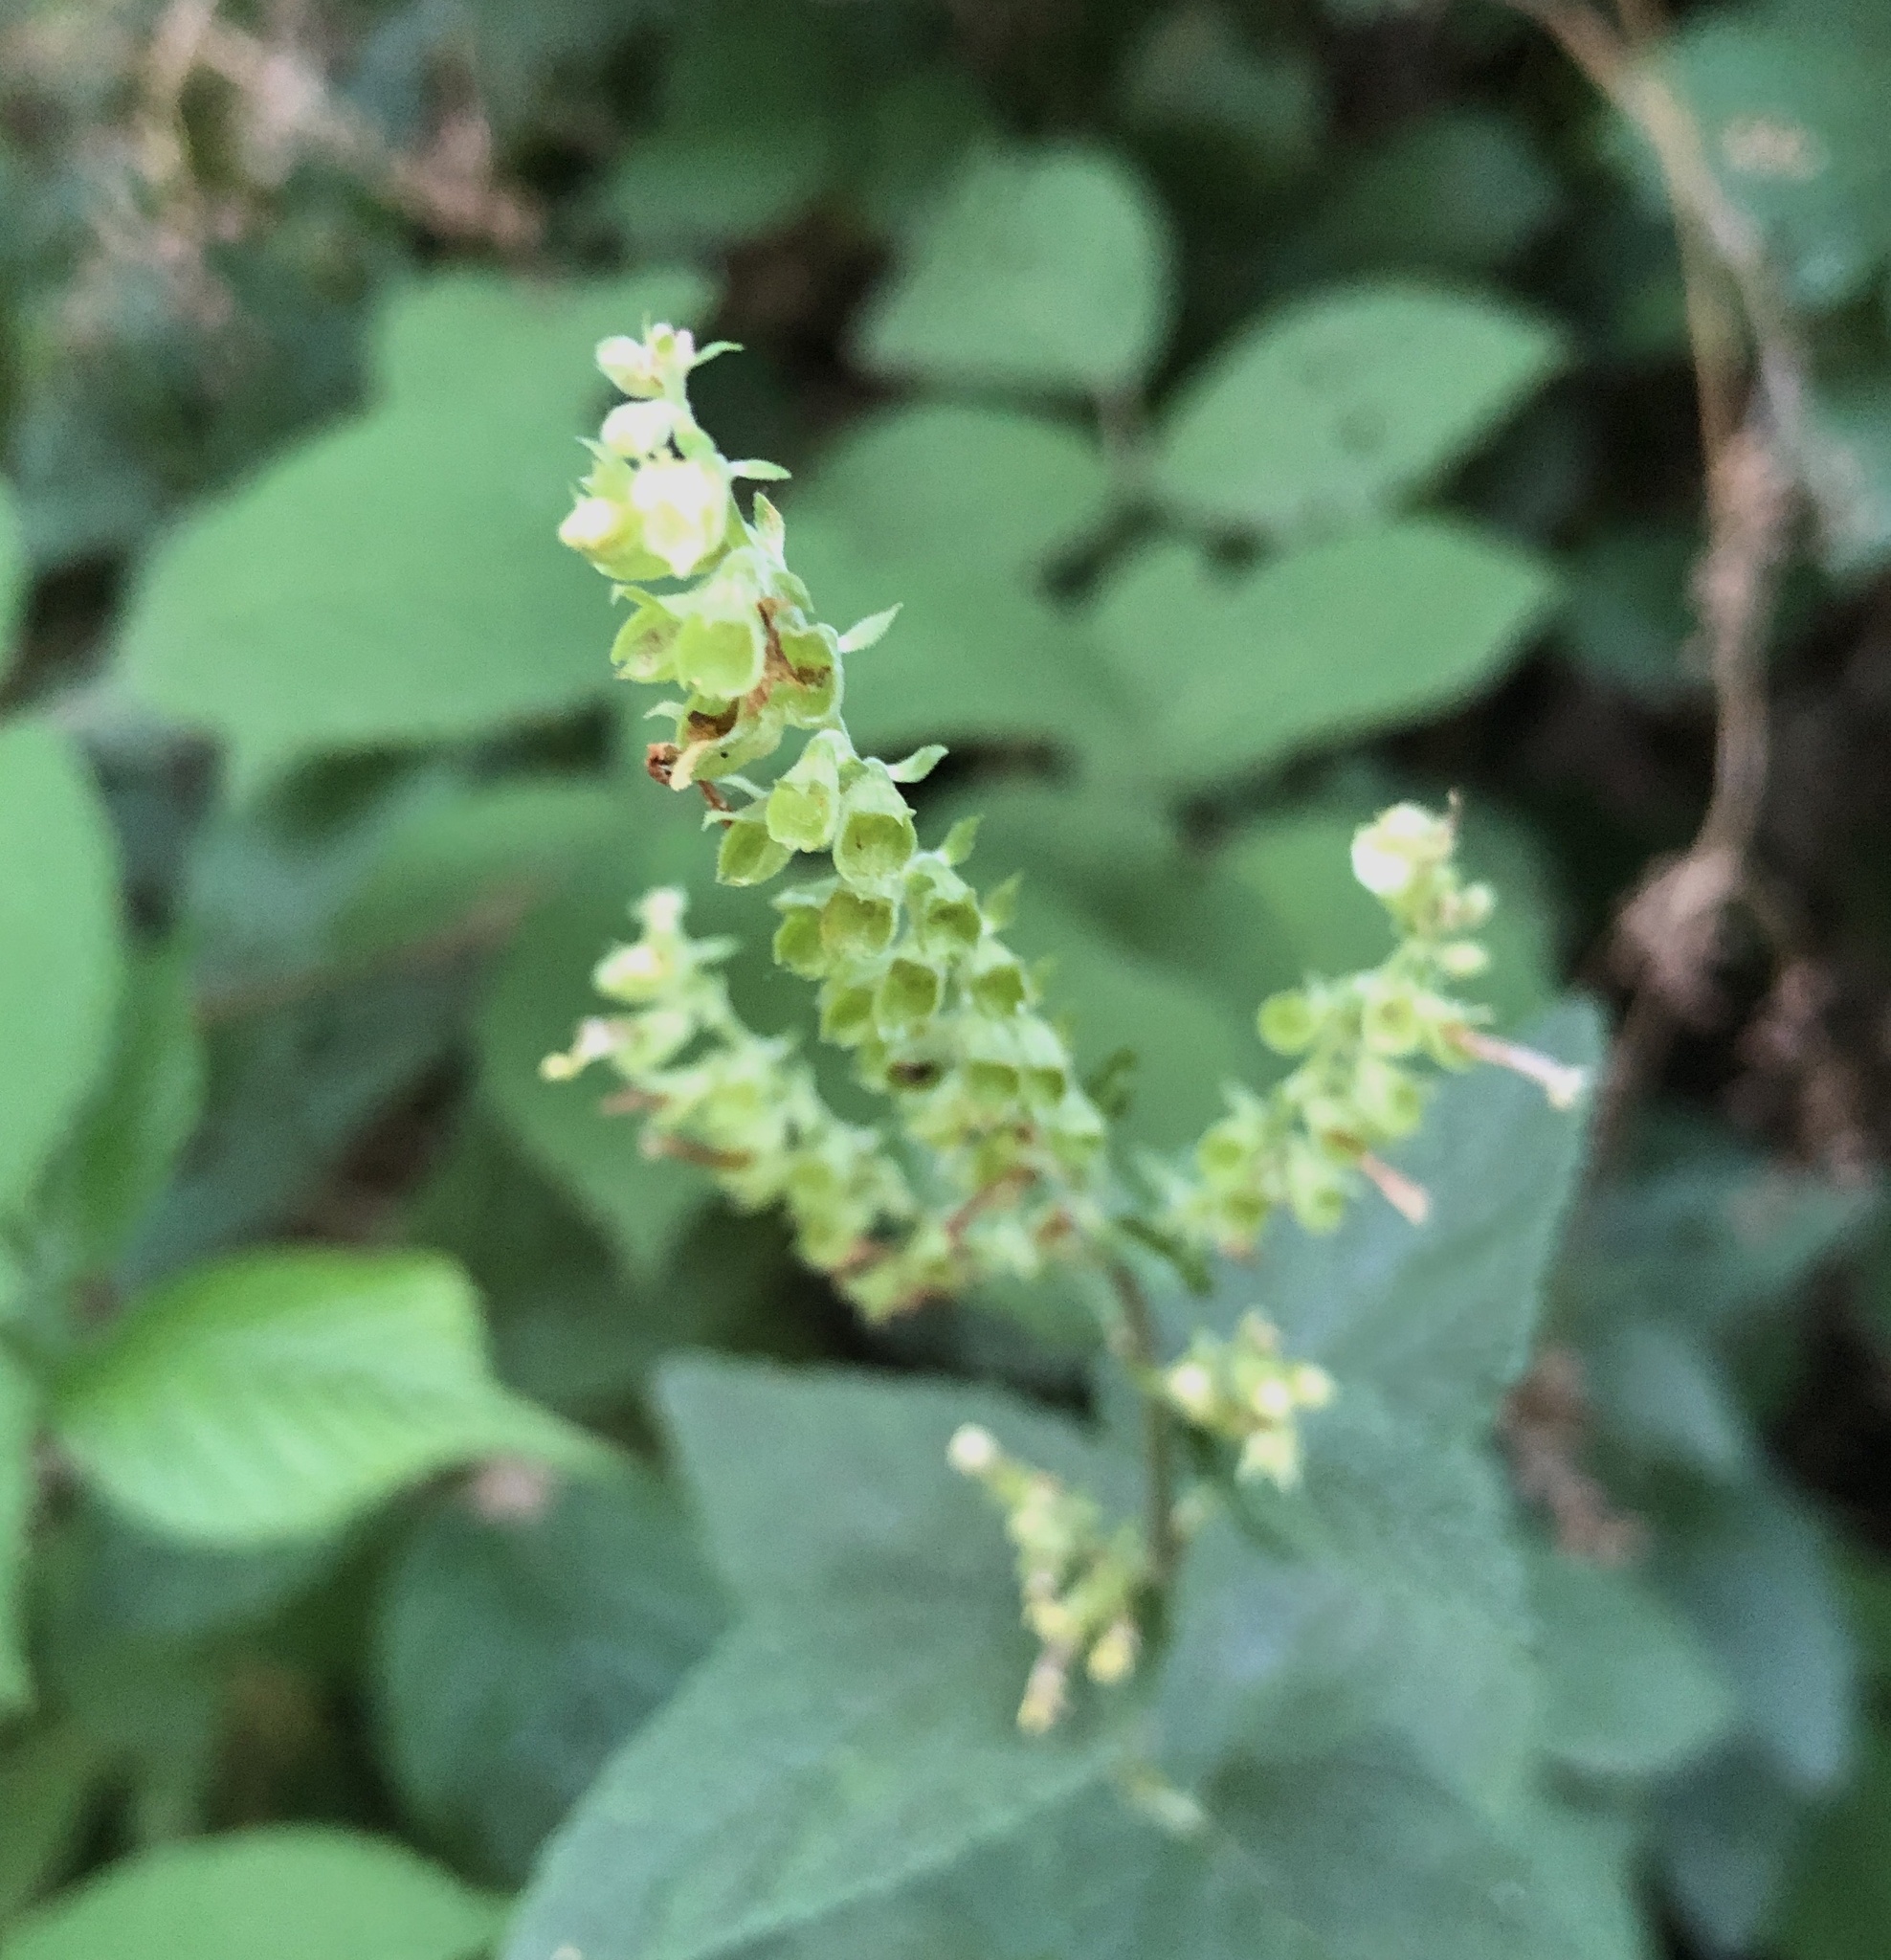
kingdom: Plantae
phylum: Tracheophyta
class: Magnoliopsida
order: Lamiales
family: Lamiaceae
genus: Teucrium
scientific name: Teucrium scorodonia
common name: Woodland germander
